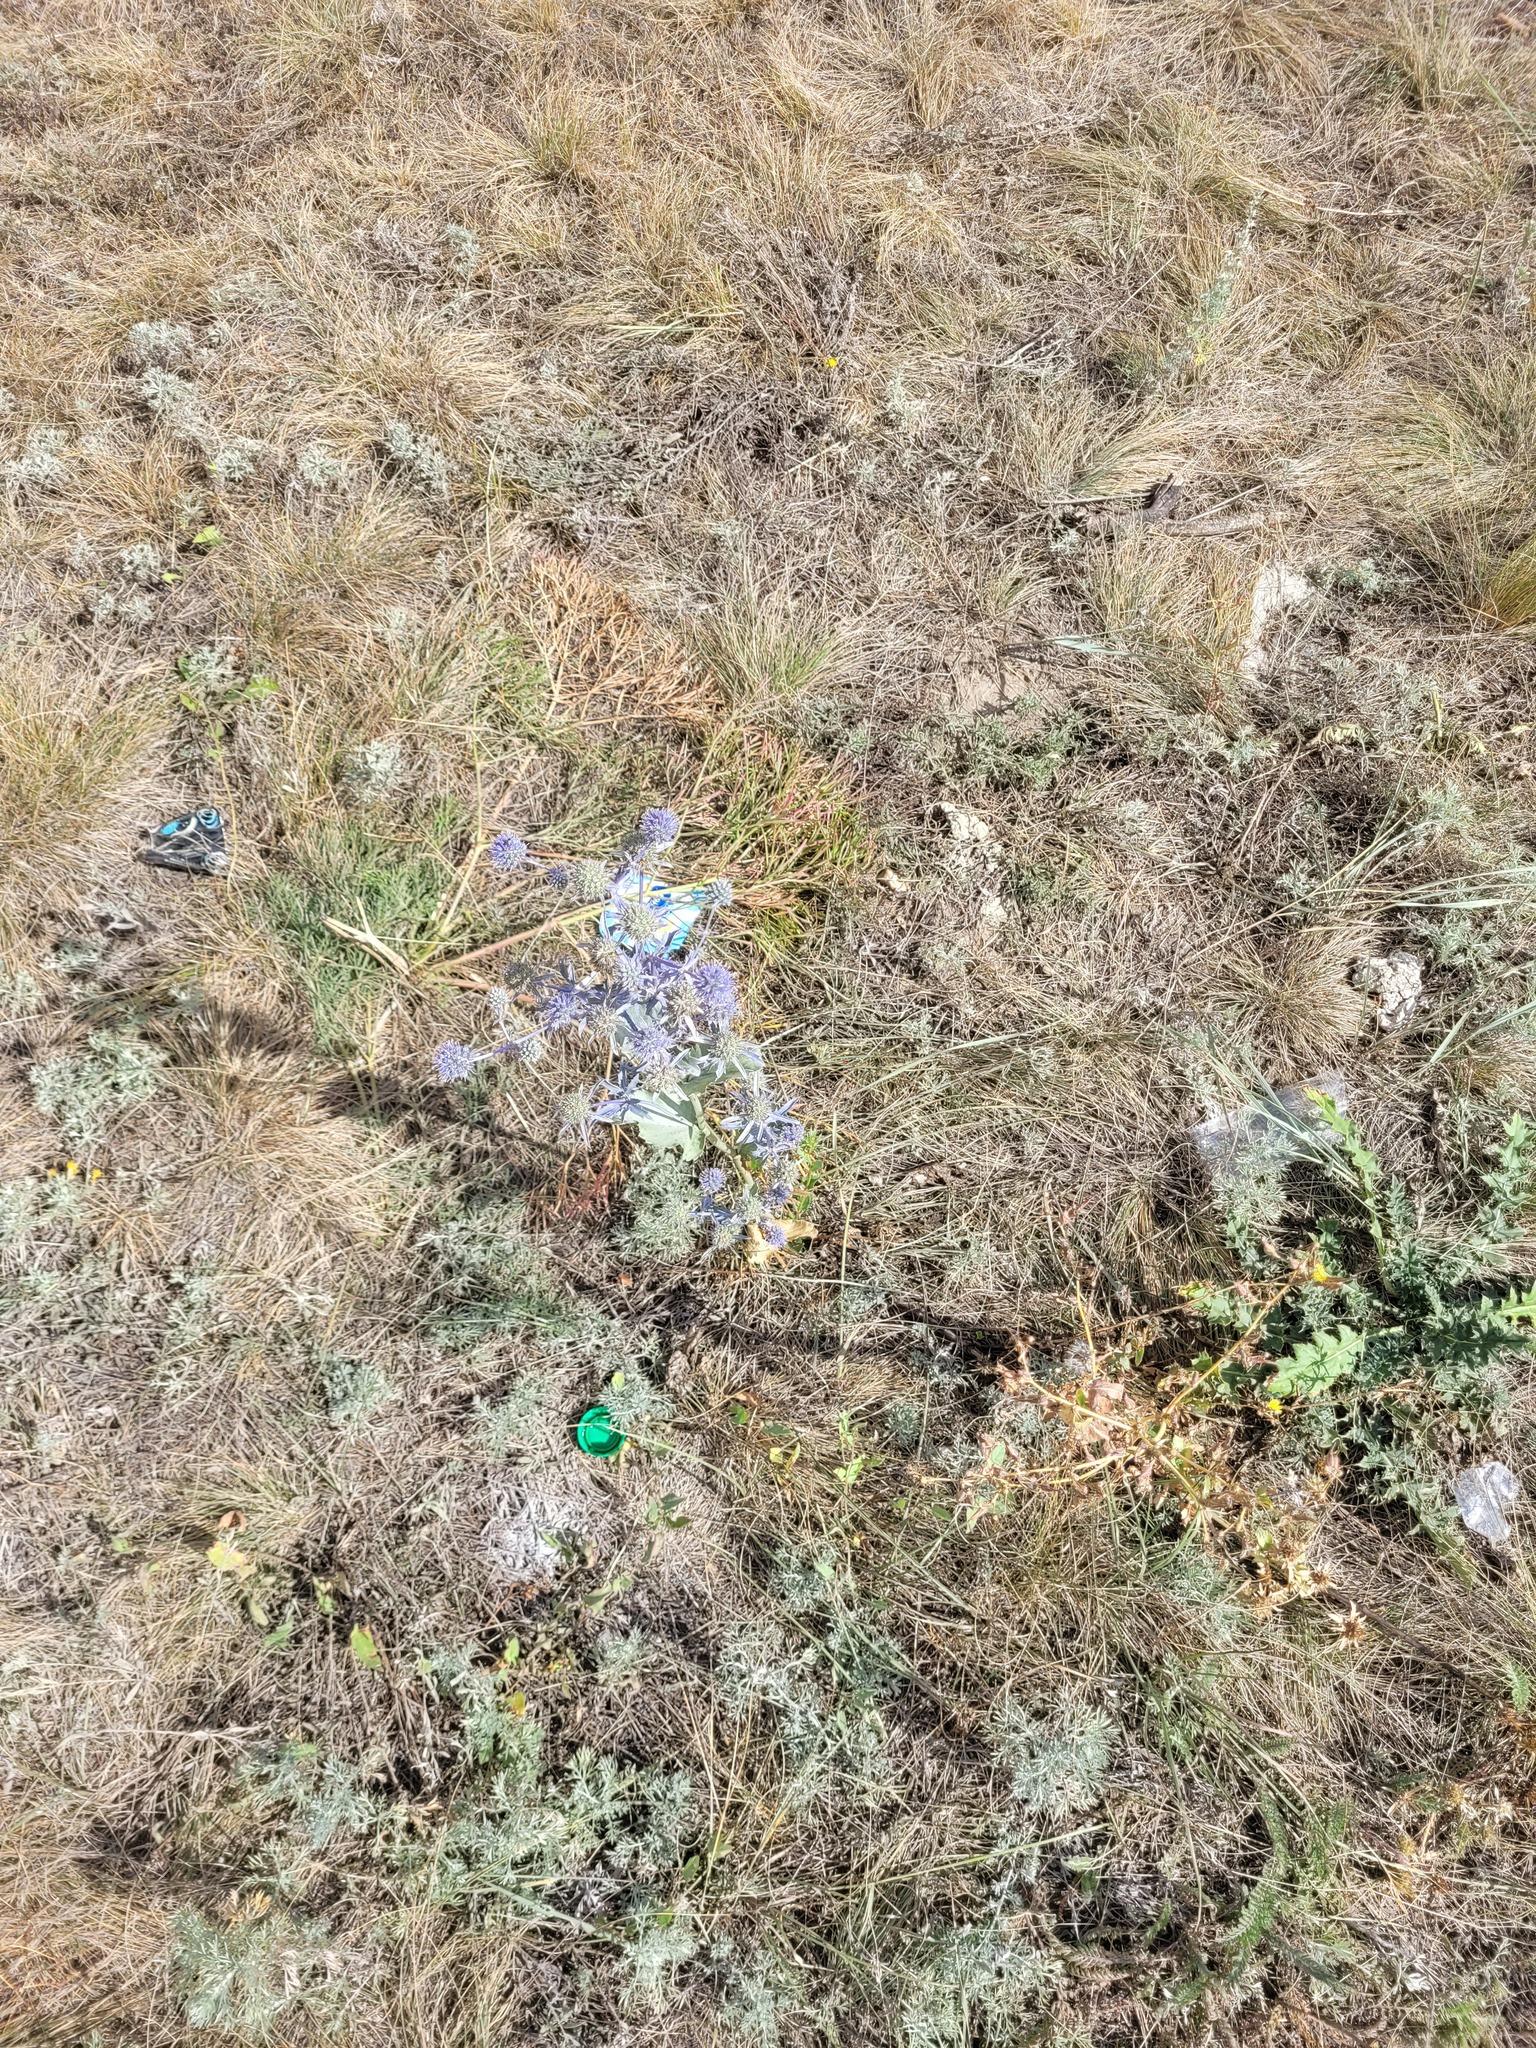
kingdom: Plantae
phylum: Tracheophyta
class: Magnoliopsida
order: Apiales
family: Apiaceae
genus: Eryngium
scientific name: Eryngium planum
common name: Blue eryngo
